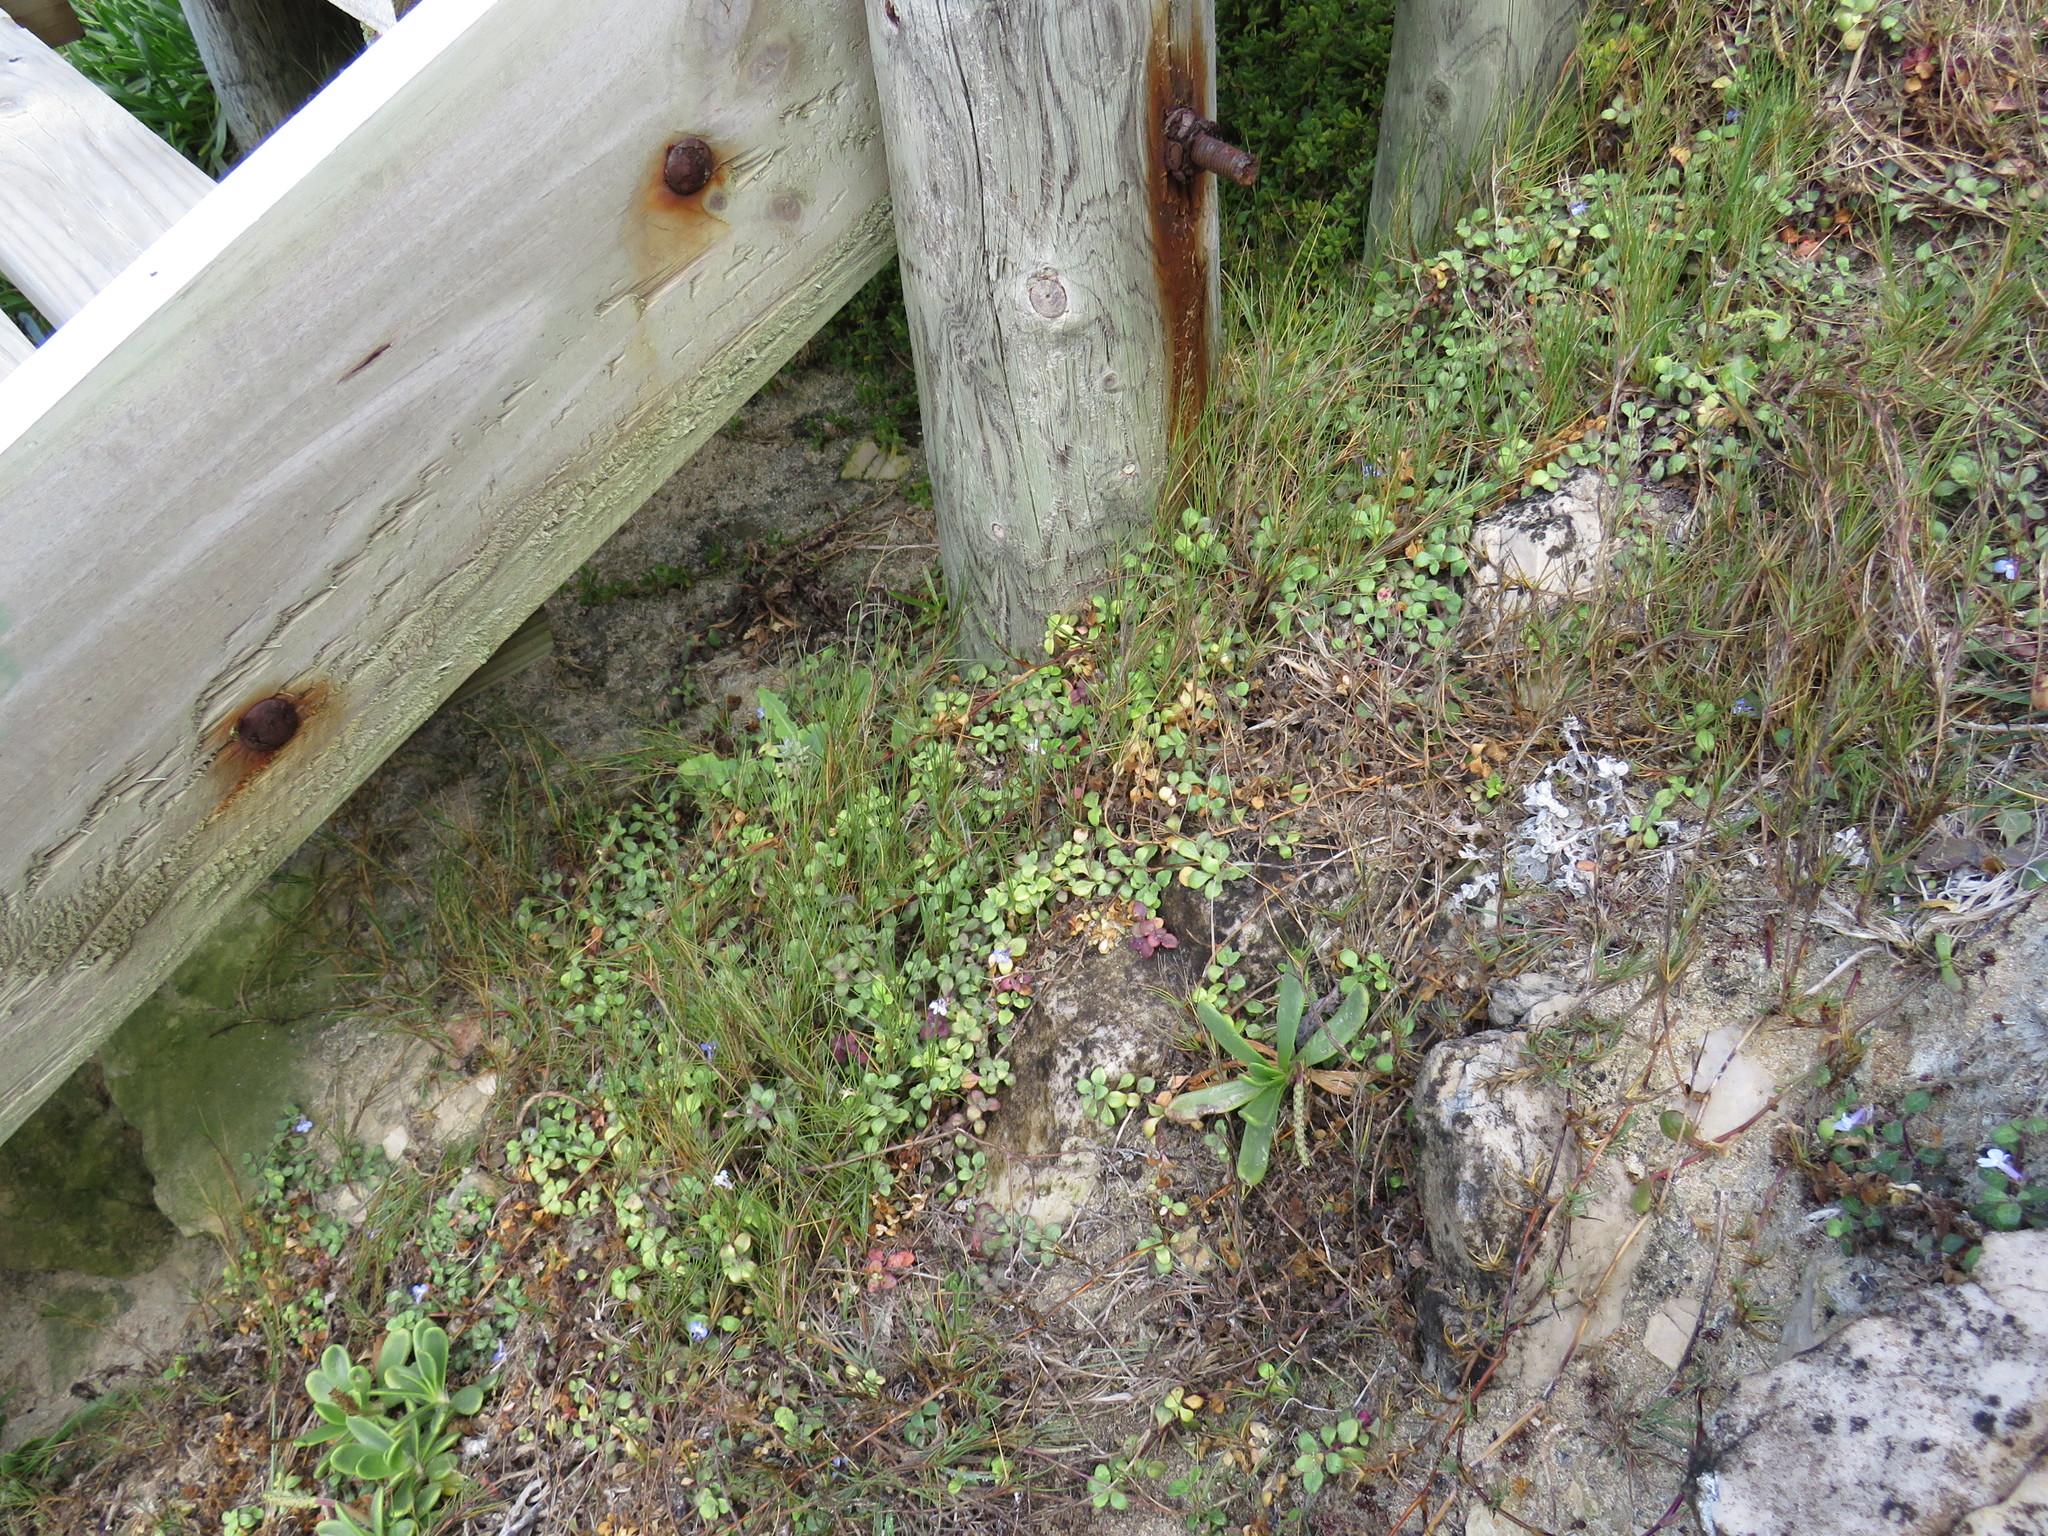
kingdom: Plantae
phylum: Tracheophyta
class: Magnoliopsida
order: Asterales
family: Campanulaceae
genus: Lobelia
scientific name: Lobelia boivinii
